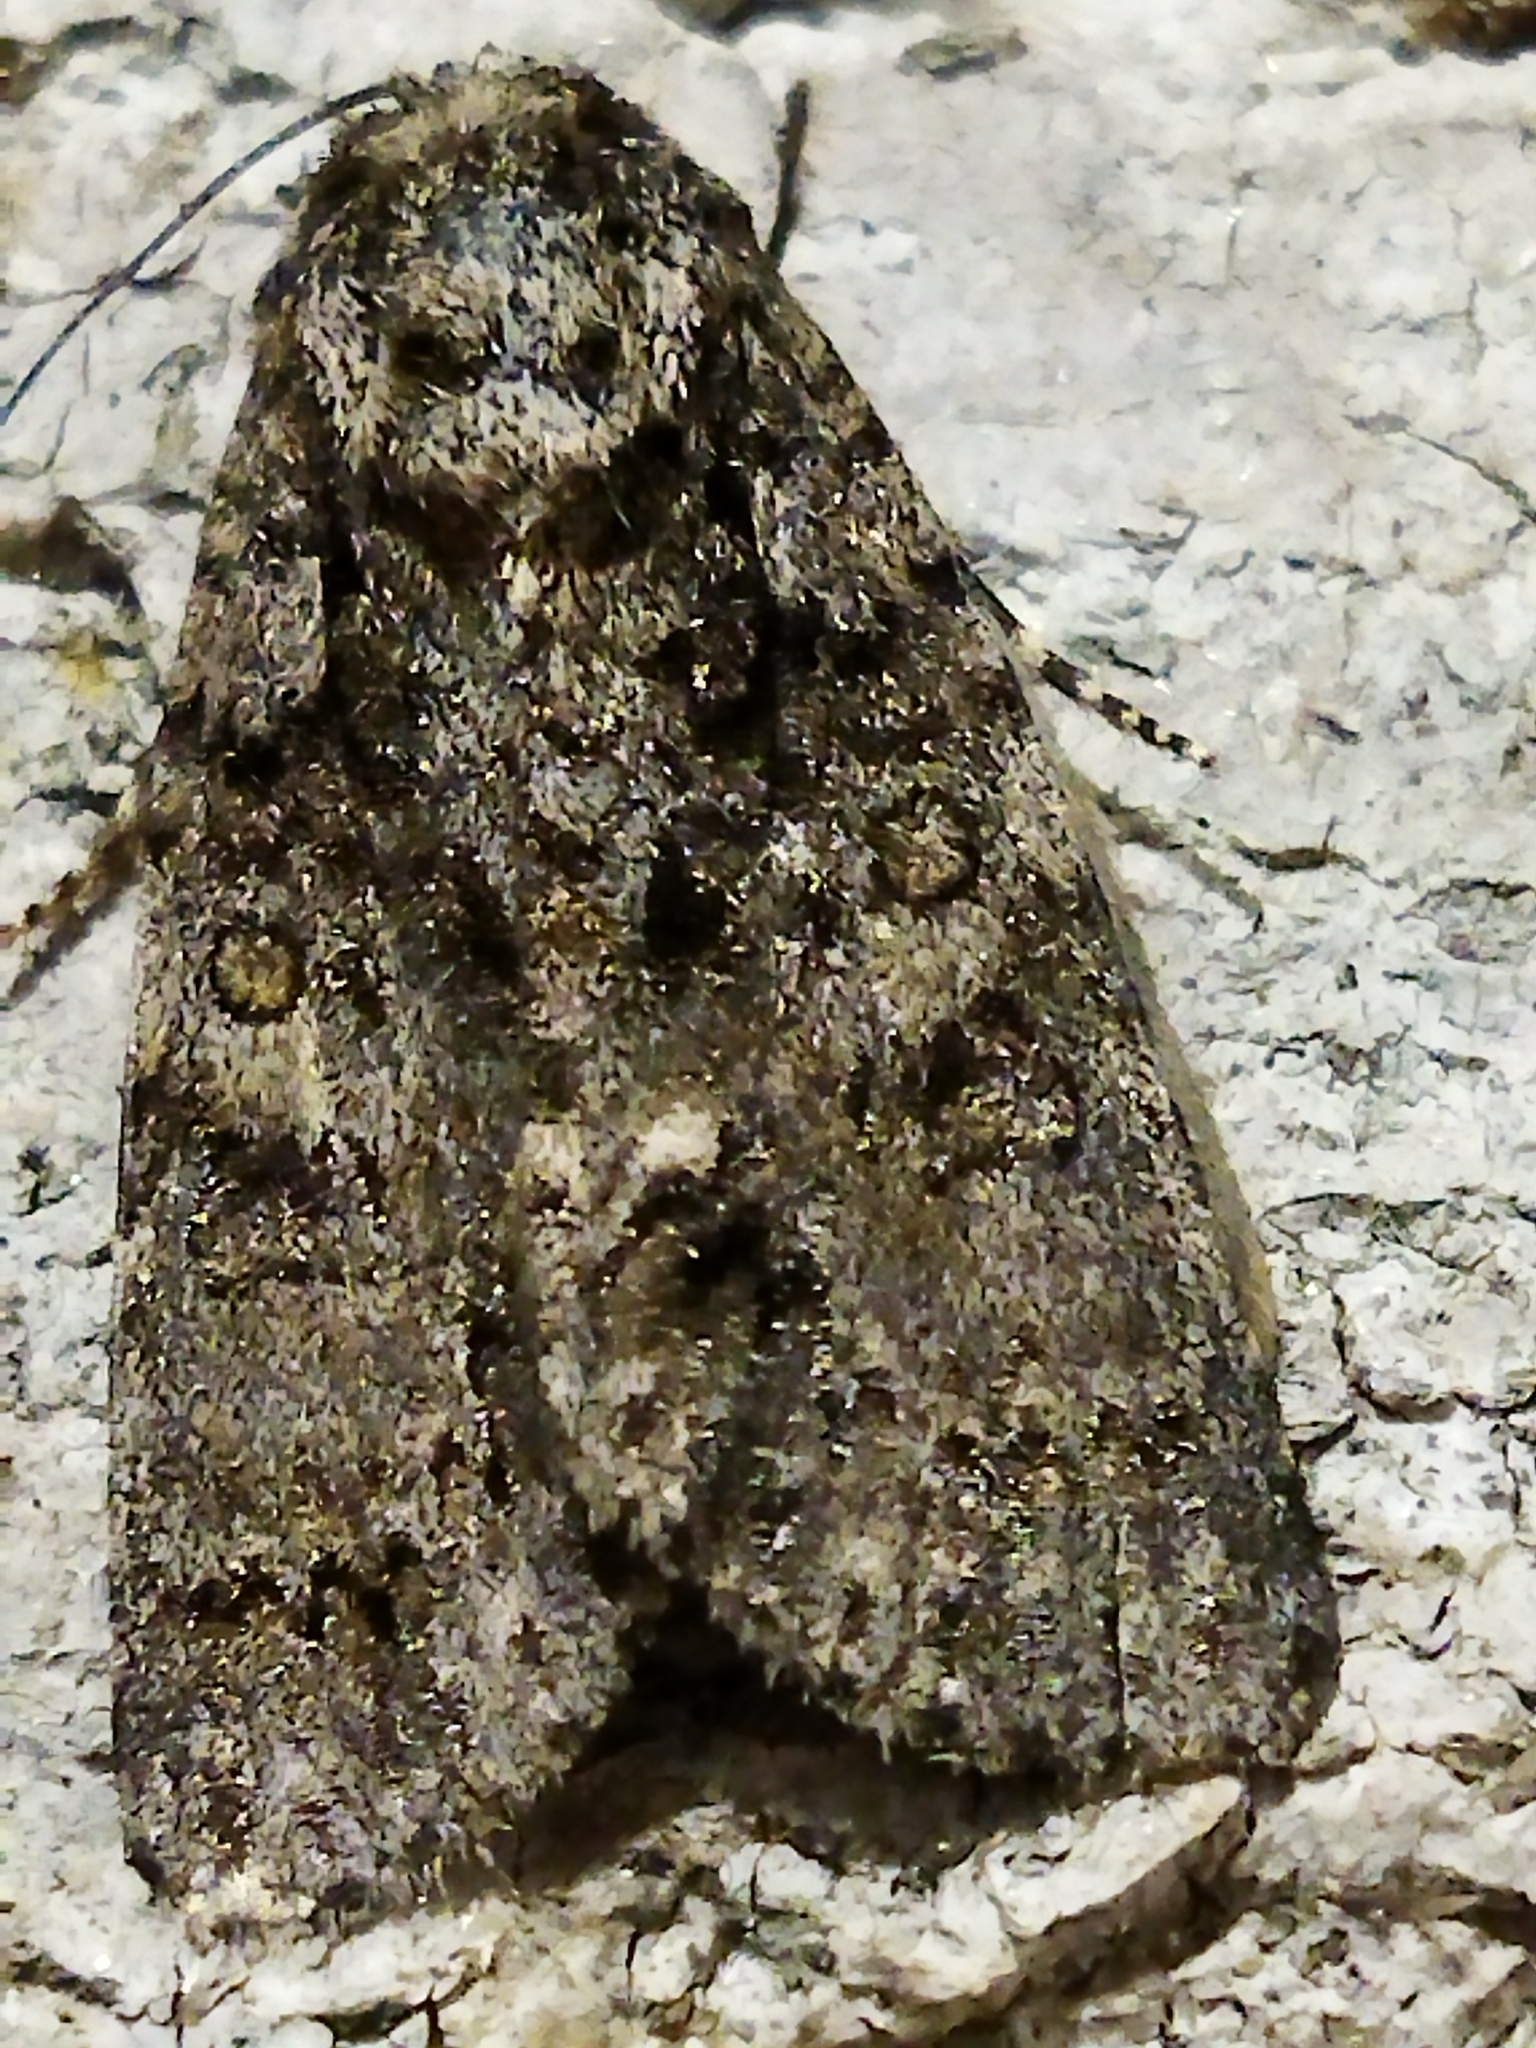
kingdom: Animalia
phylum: Arthropoda
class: Insecta
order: Lepidoptera
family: Noctuidae
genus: Acronicta
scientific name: Acronicta rumicis
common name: Knot grass
